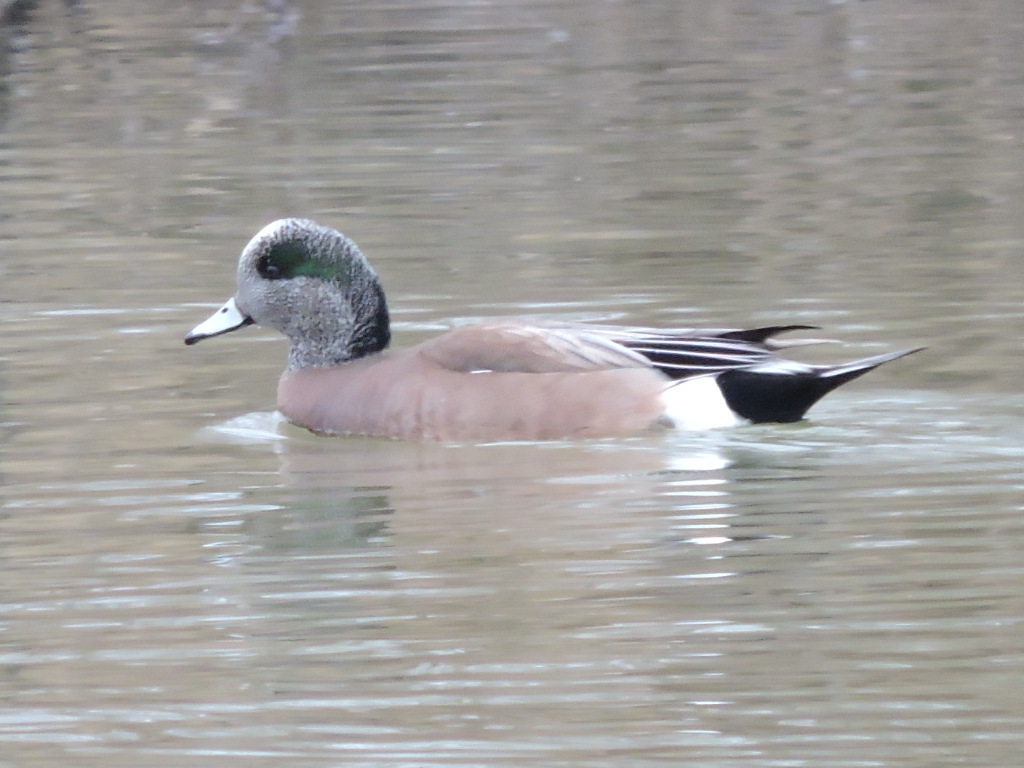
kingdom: Animalia
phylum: Chordata
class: Aves
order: Anseriformes
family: Anatidae
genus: Mareca
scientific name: Mareca americana
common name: American wigeon
